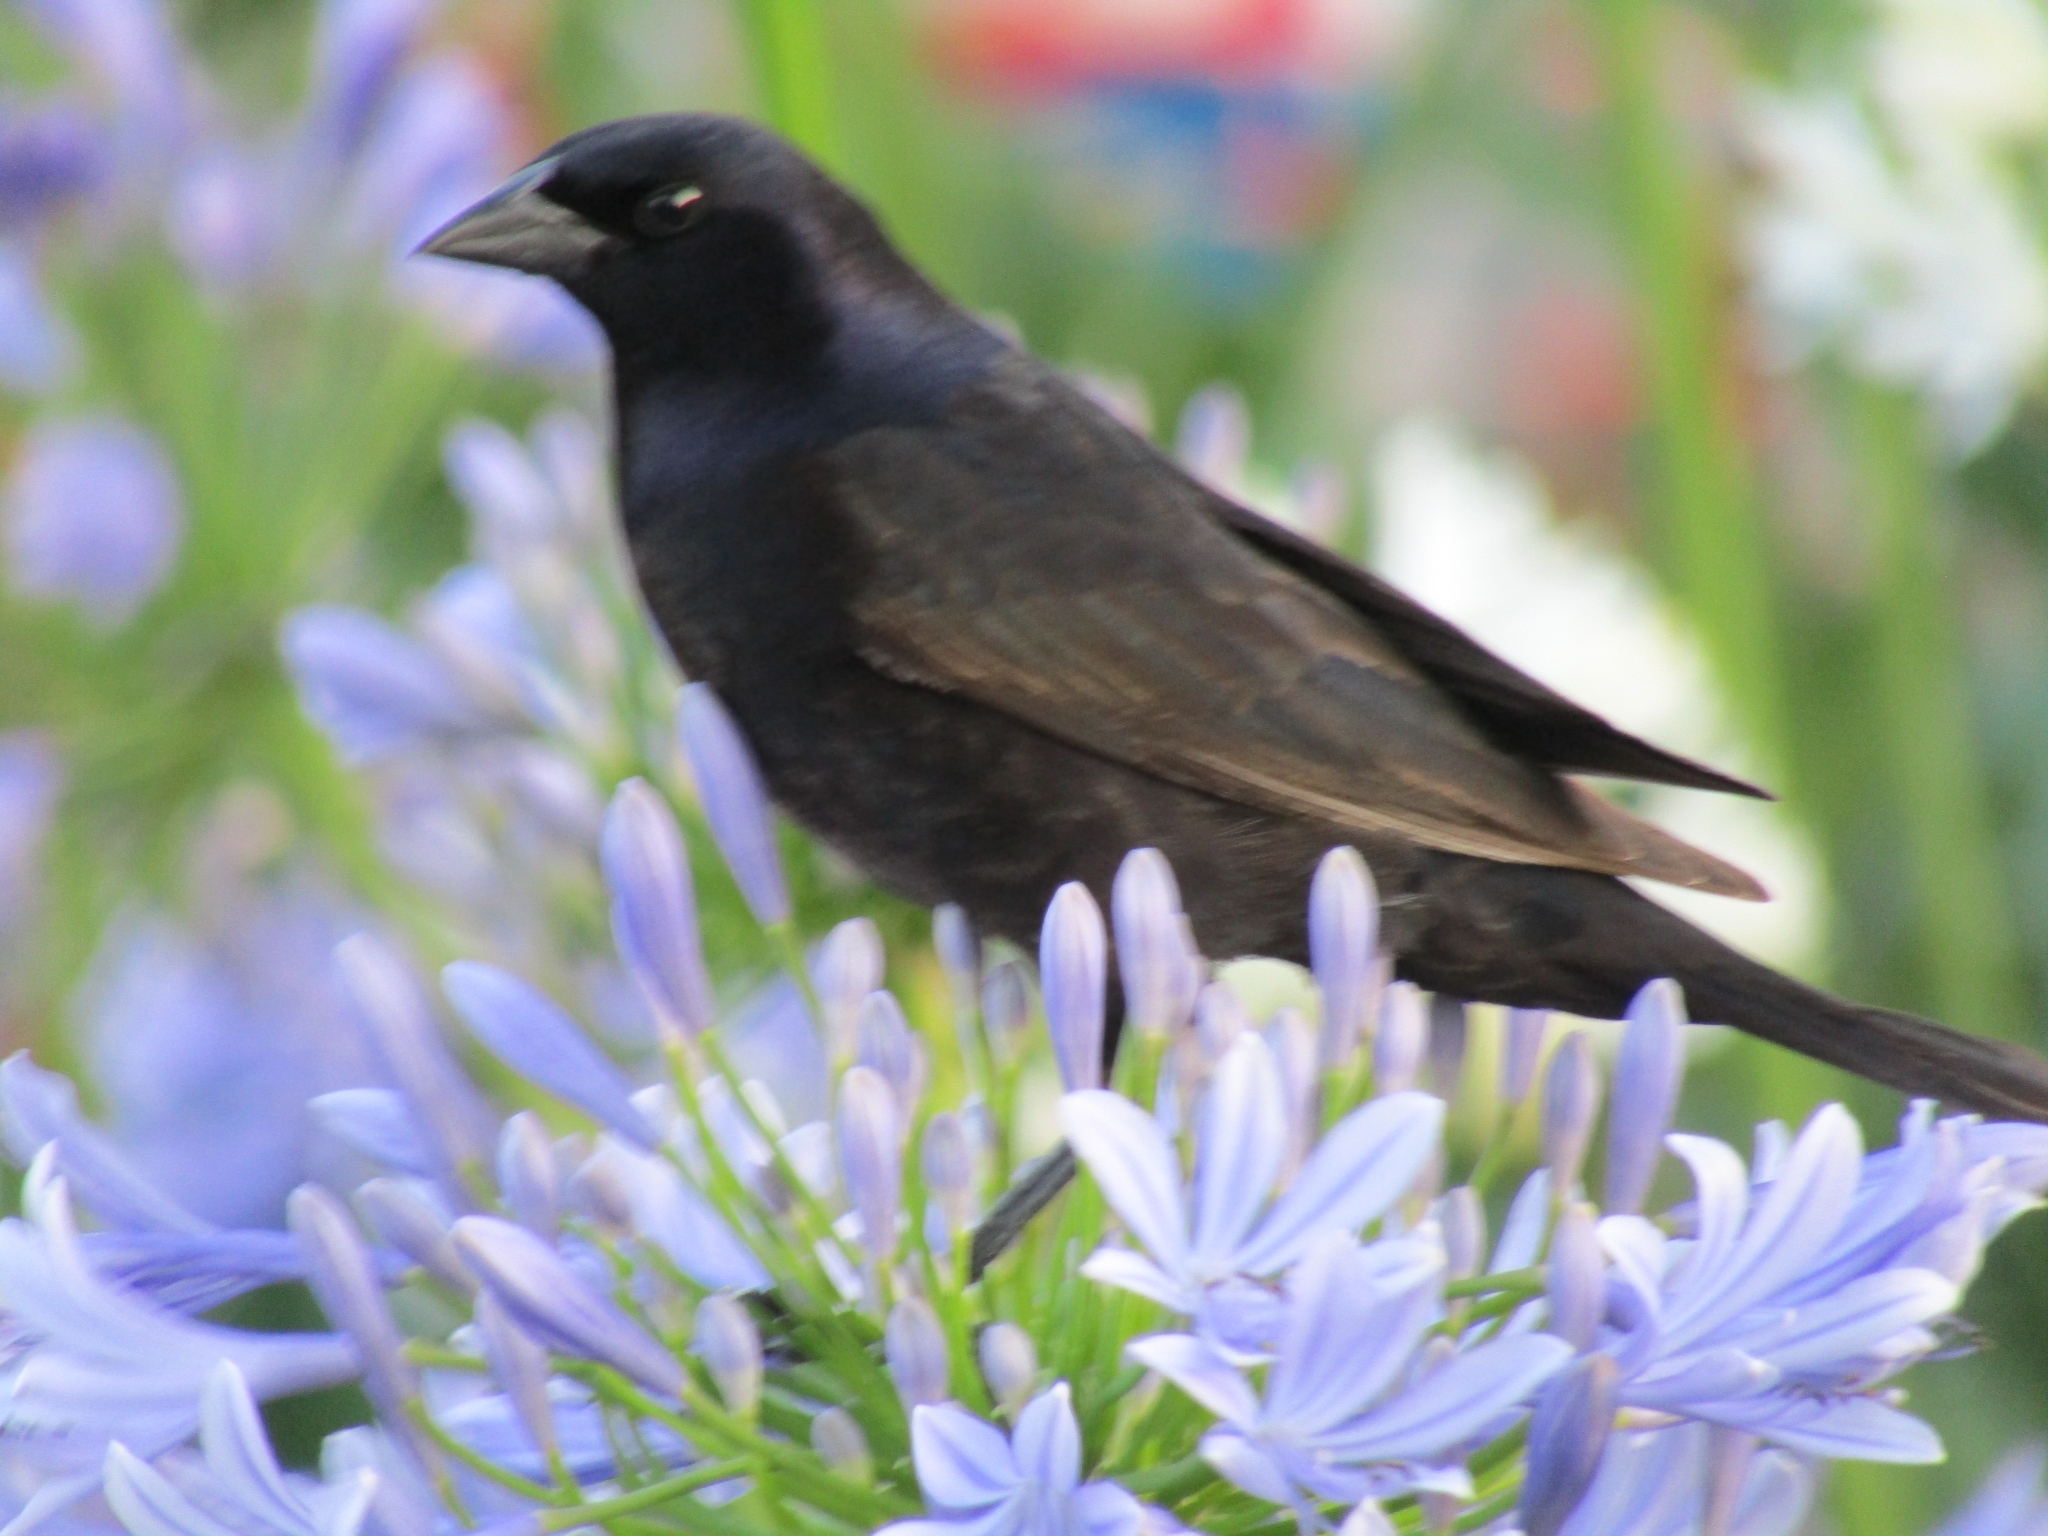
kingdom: Animalia
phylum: Chordata
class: Aves
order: Passeriformes
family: Icteridae
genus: Molothrus
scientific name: Molothrus bonariensis
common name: Shiny cowbird
